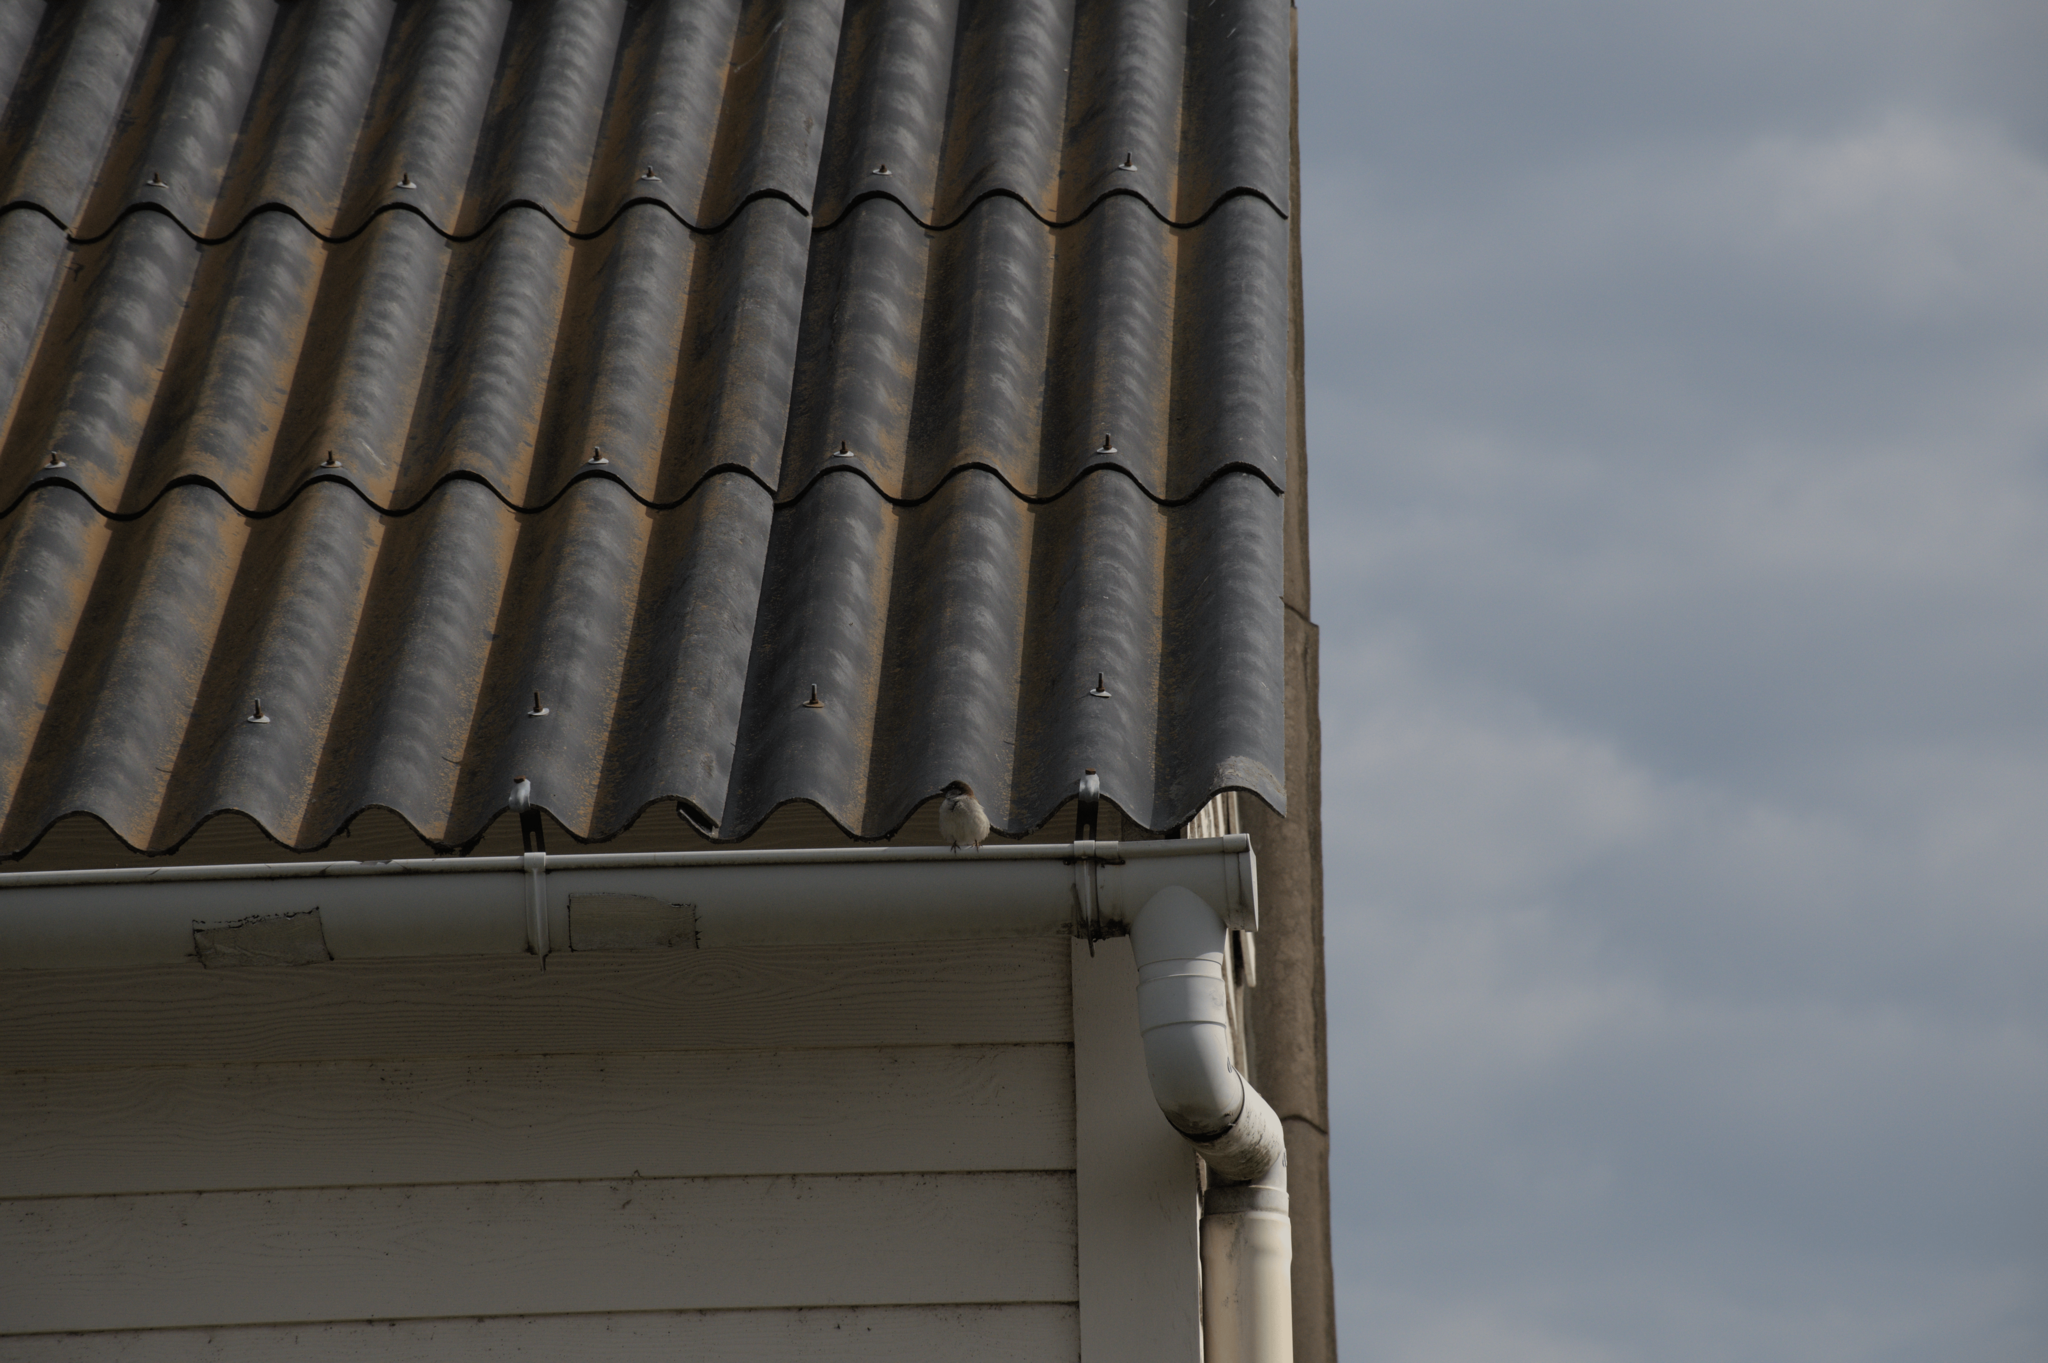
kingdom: Animalia
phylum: Chordata
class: Aves
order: Passeriformes
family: Passeridae
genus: Passer
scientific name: Passer domesticus
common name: House sparrow
